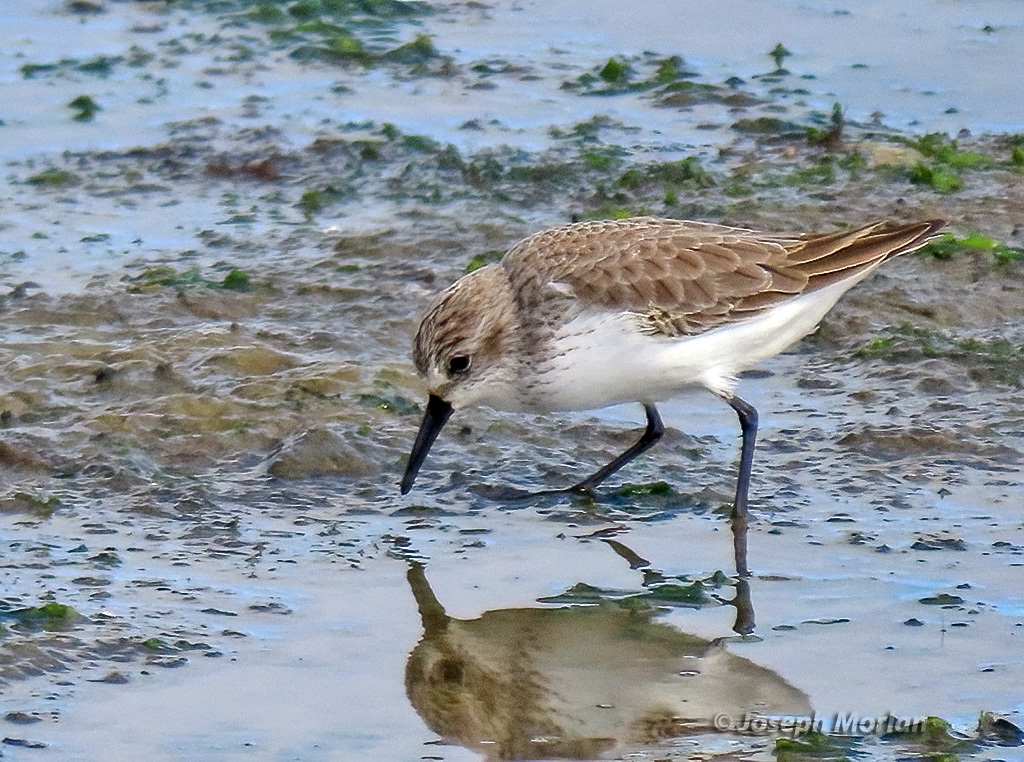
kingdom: Animalia
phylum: Chordata
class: Aves
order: Charadriiformes
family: Scolopacidae
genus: Calidris
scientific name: Calidris mauri
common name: Western sandpiper
